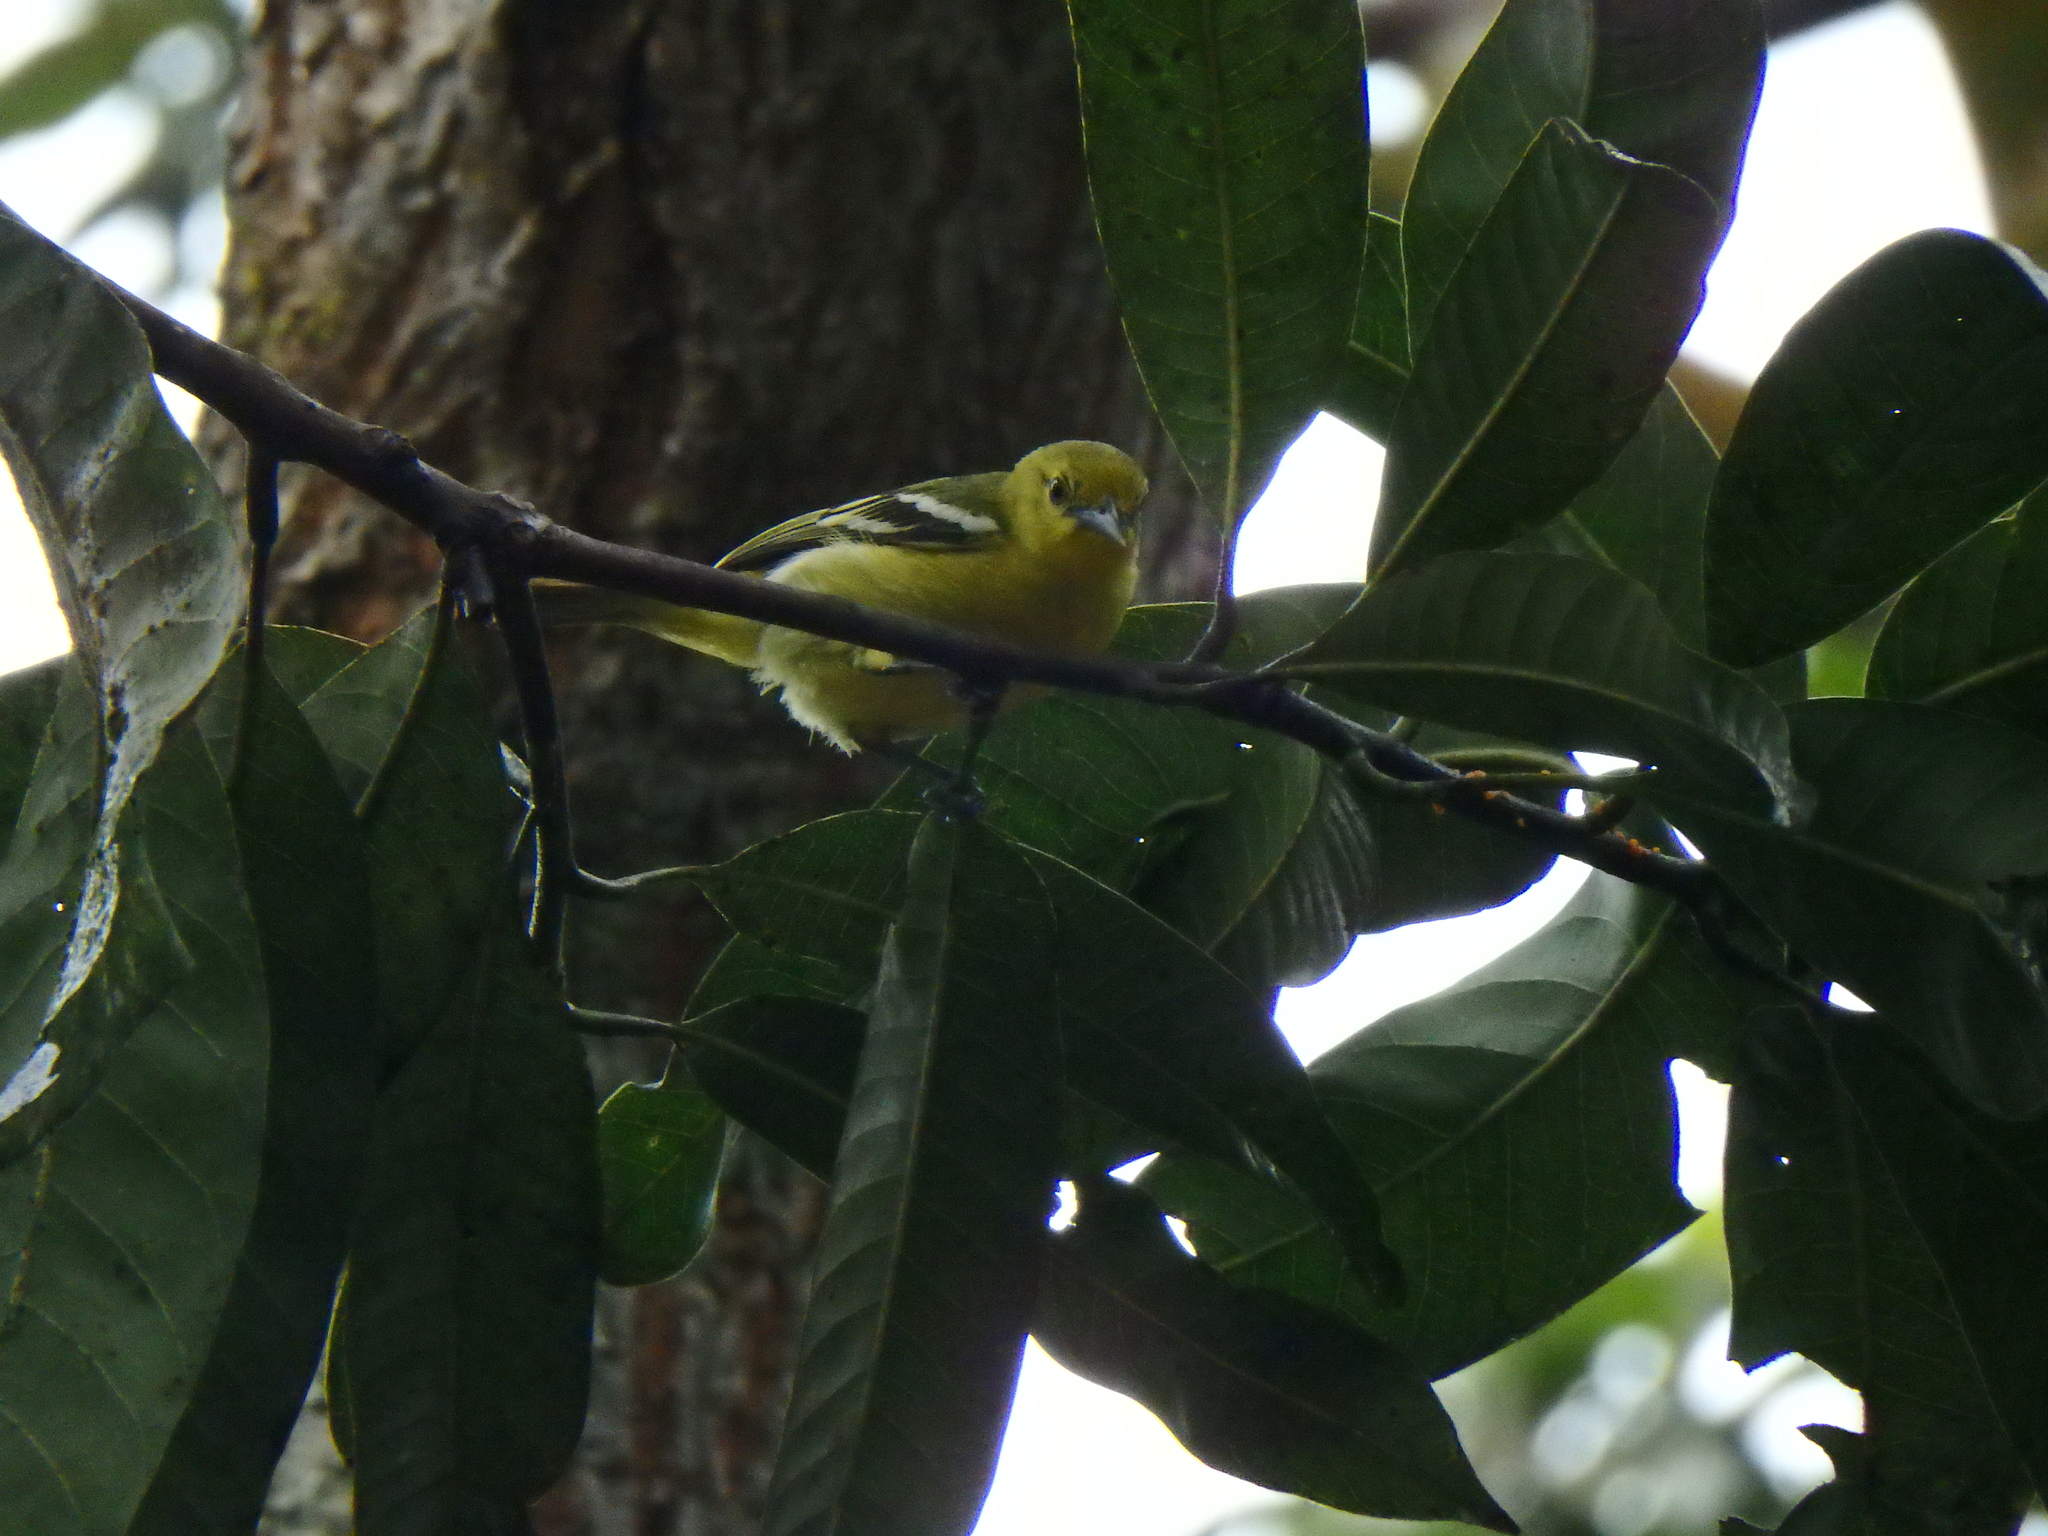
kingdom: Animalia
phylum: Chordata
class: Aves
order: Passeriformes
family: Aegithinidae
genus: Aegithina
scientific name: Aegithina tiphia
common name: Common iora
